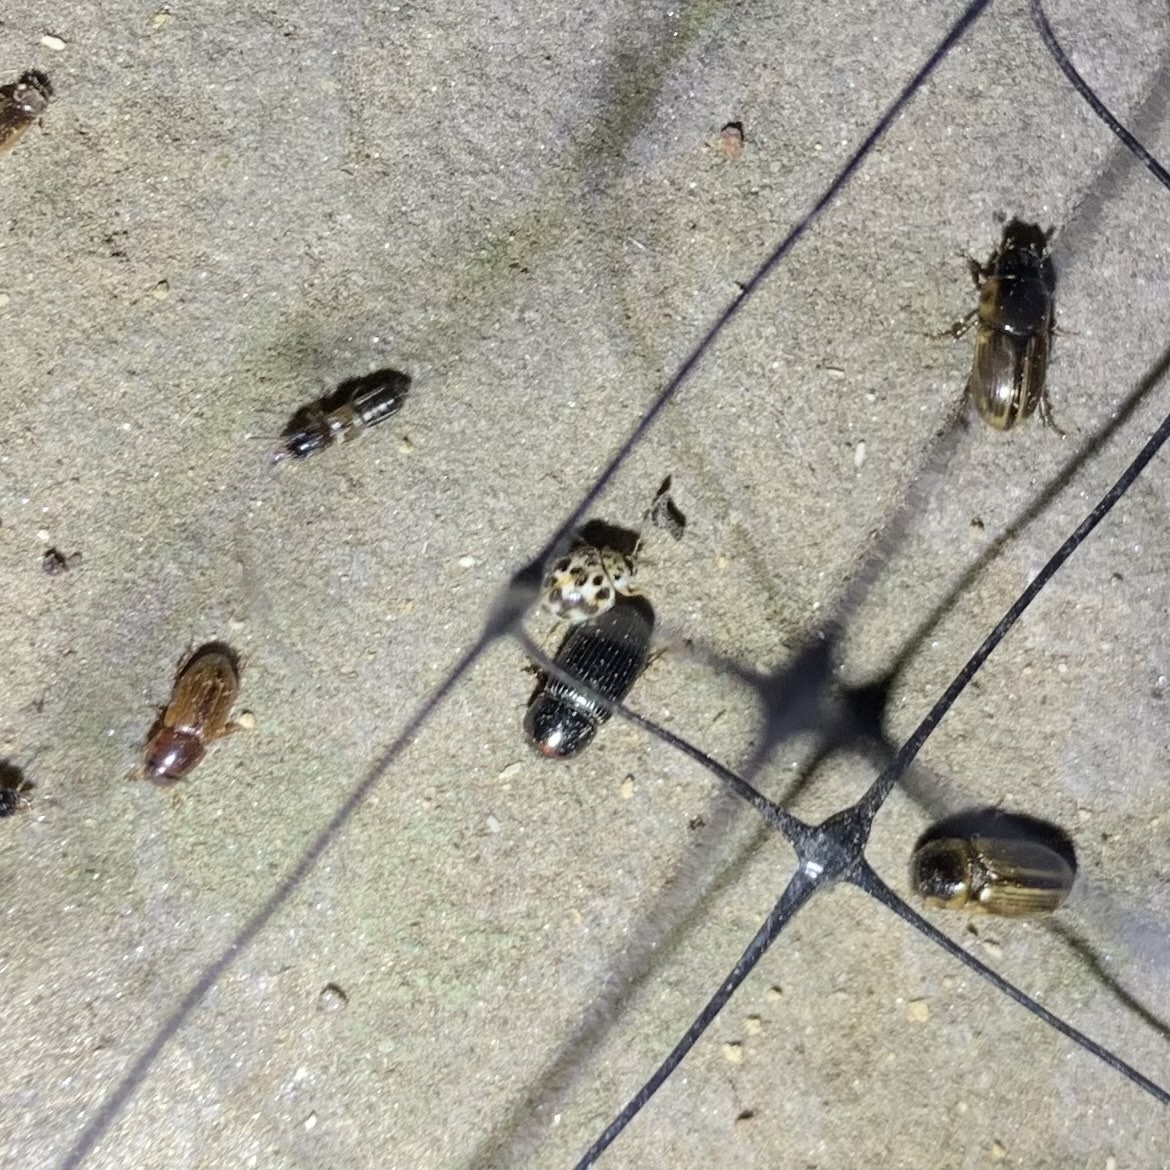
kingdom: Animalia
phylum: Arthropoda
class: Insecta
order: Coleoptera
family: Coccinellidae
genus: Psyllobora
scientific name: Psyllobora vigintimaculata
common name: Ladybird beetle
